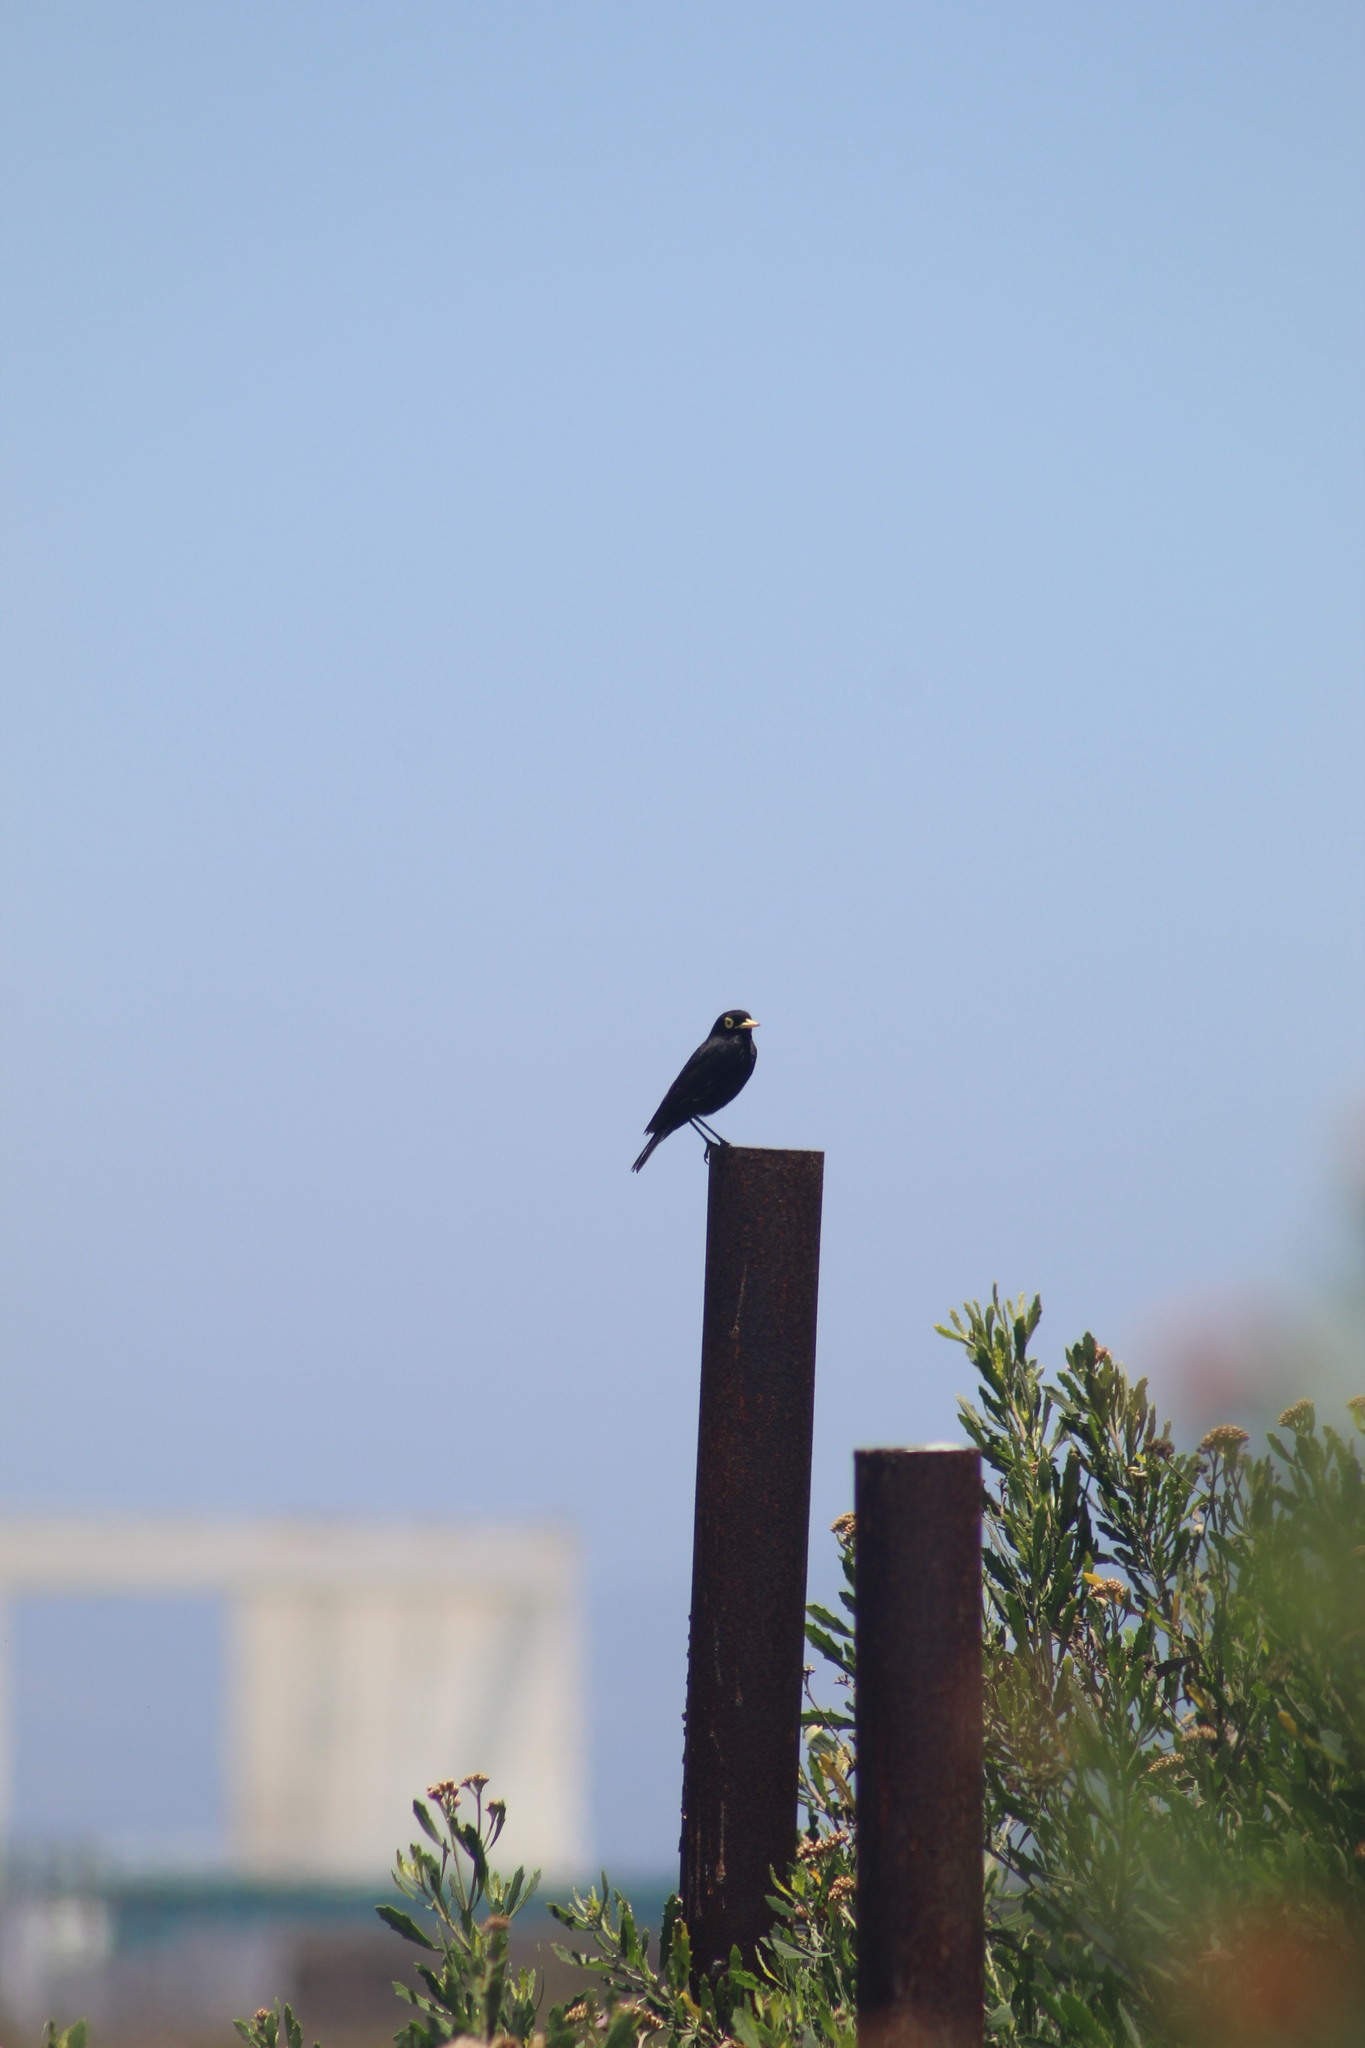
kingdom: Animalia
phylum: Chordata
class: Aves
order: Passeriformes
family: Tyrannidae
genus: Hymenops
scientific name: Hymenops perspicillatus
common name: Spectacled tyrant
